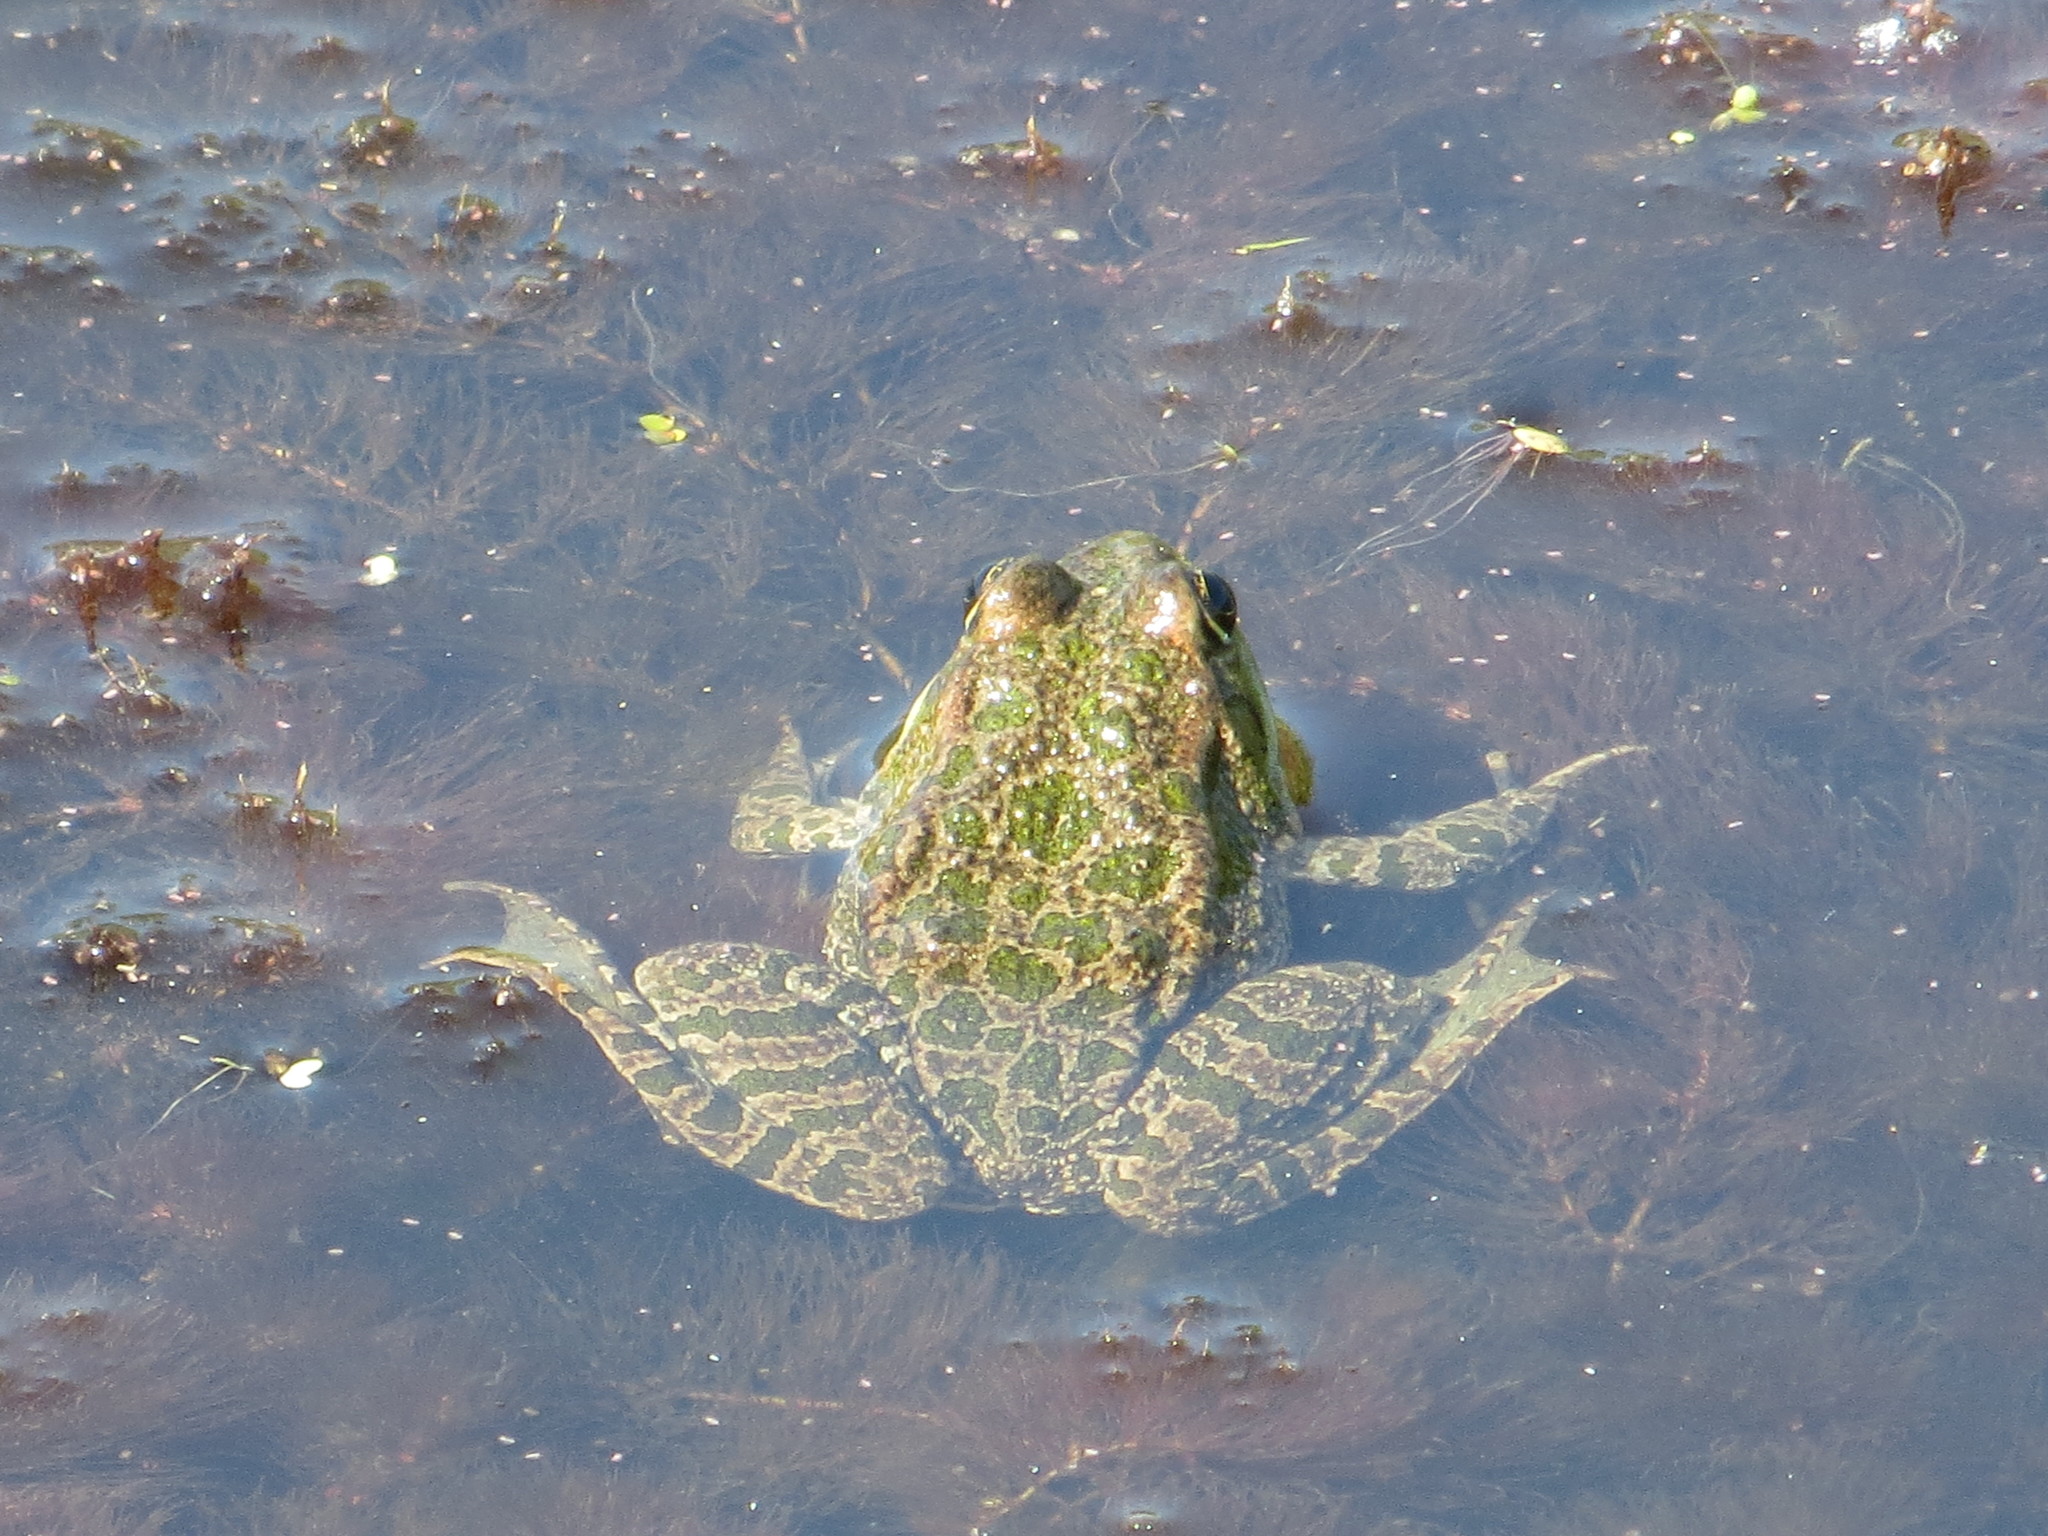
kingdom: Animalia
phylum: Chordata
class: Amphibia
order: Anura
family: Ranidae
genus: Pelophylax
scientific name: Pelophylax ridibundus
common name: Marsh frog
